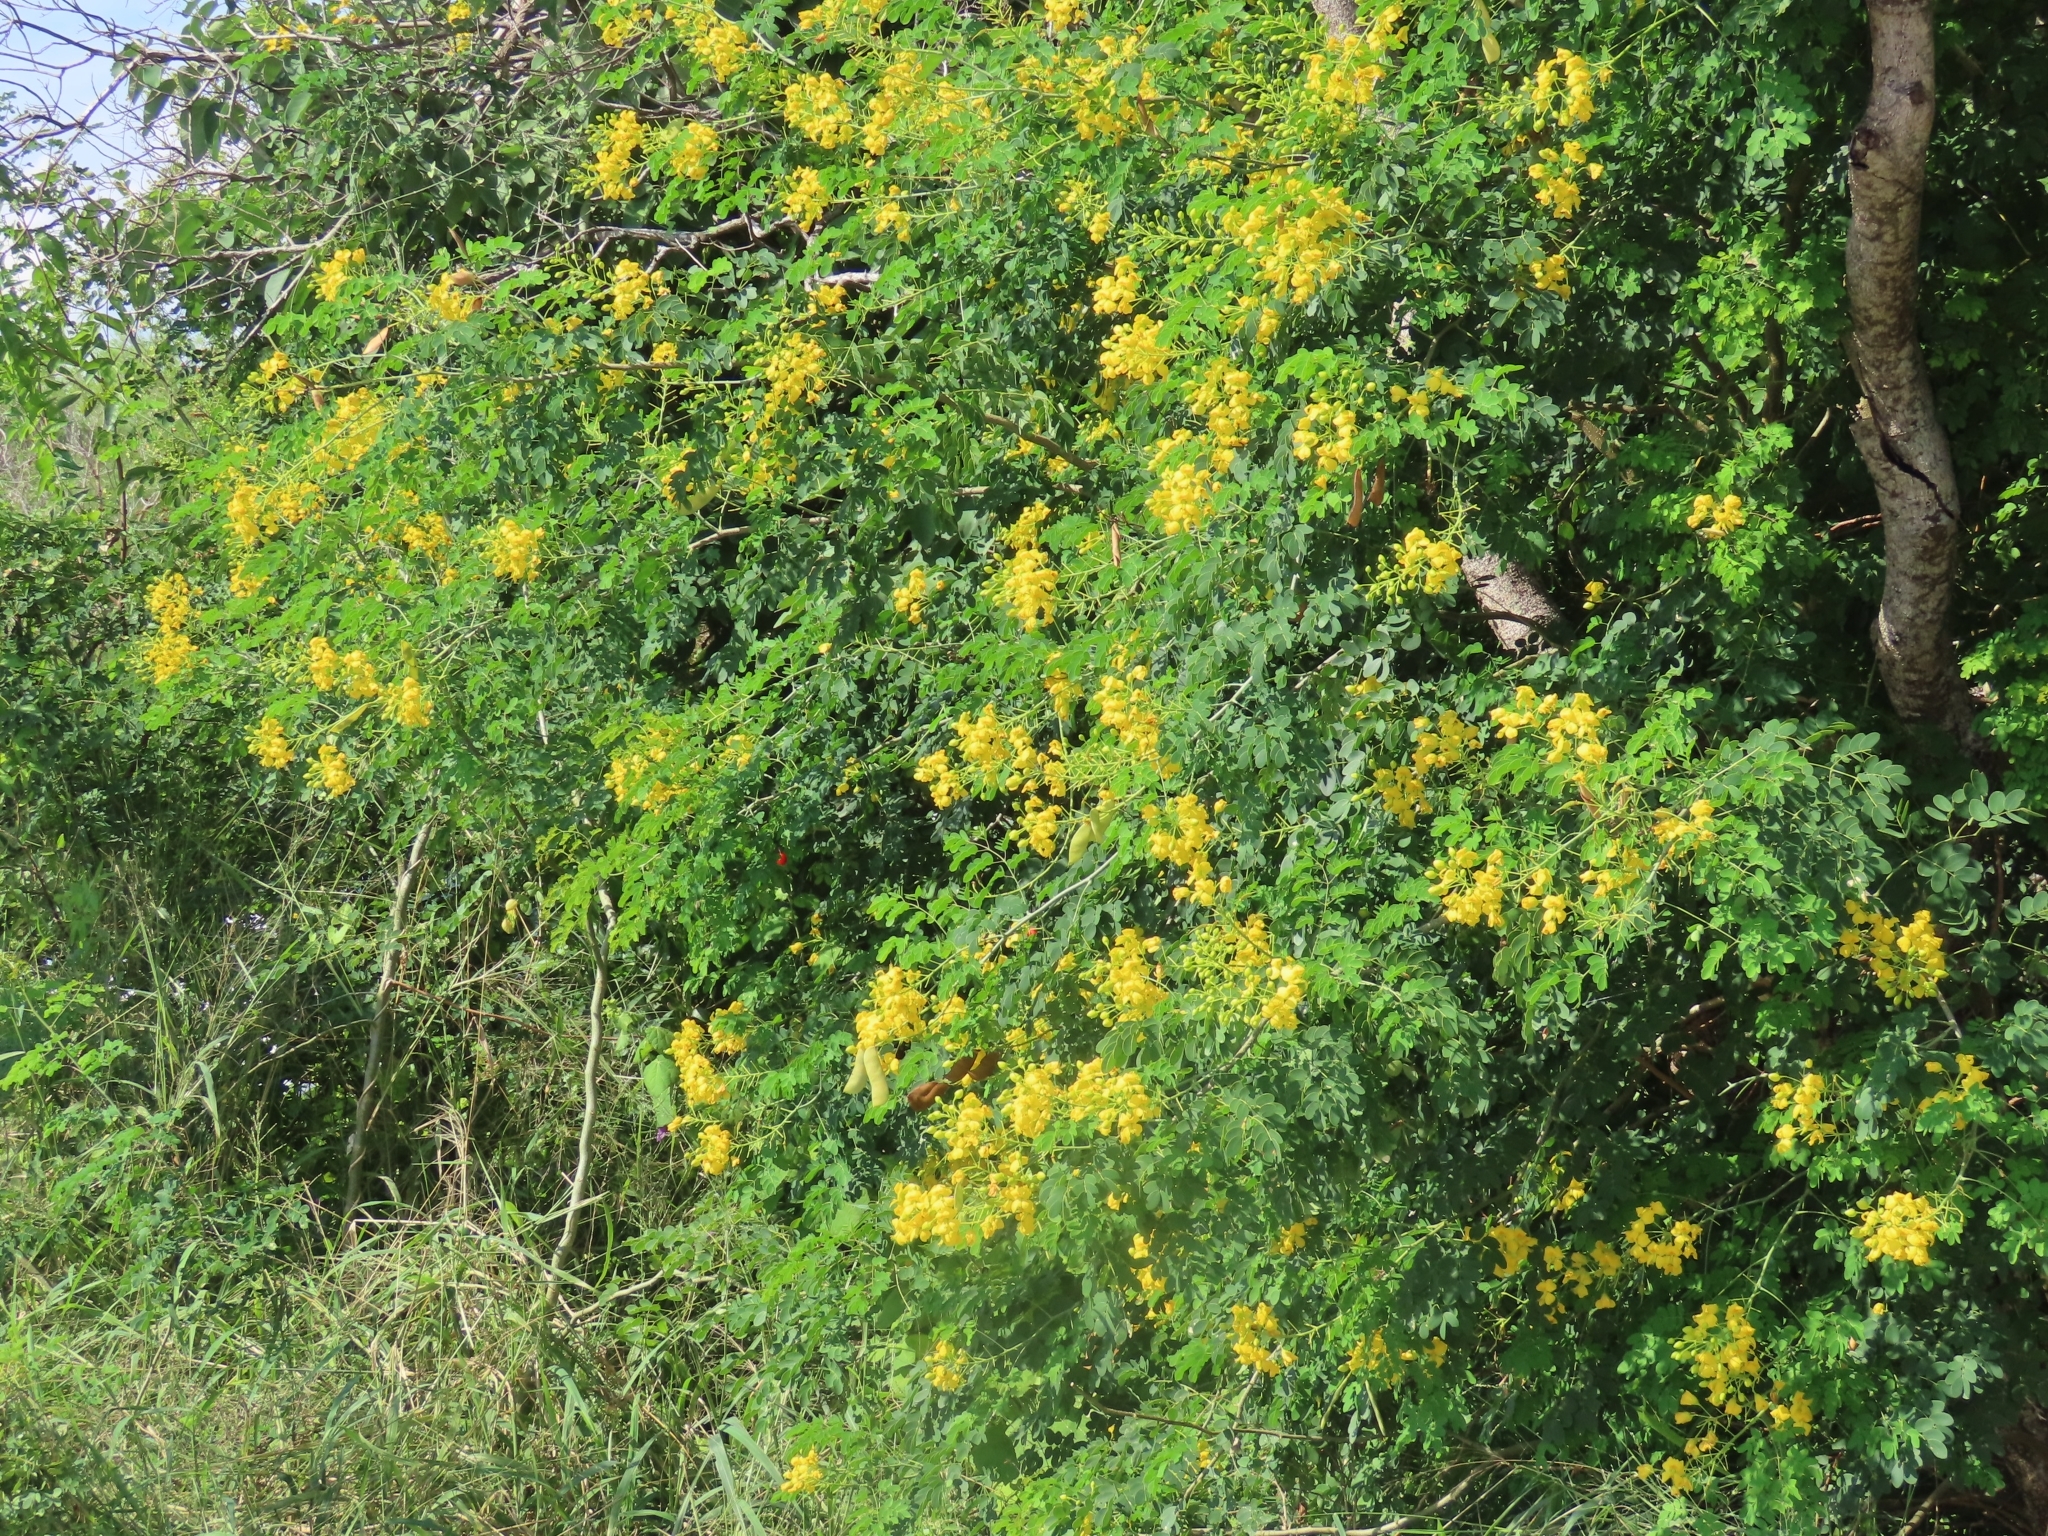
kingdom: Plantae
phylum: Tracheophyta
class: Magnoliopsida
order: Fabales
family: Fabaceae
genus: Erythrostemon
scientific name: Erythrostemon mexicanus
